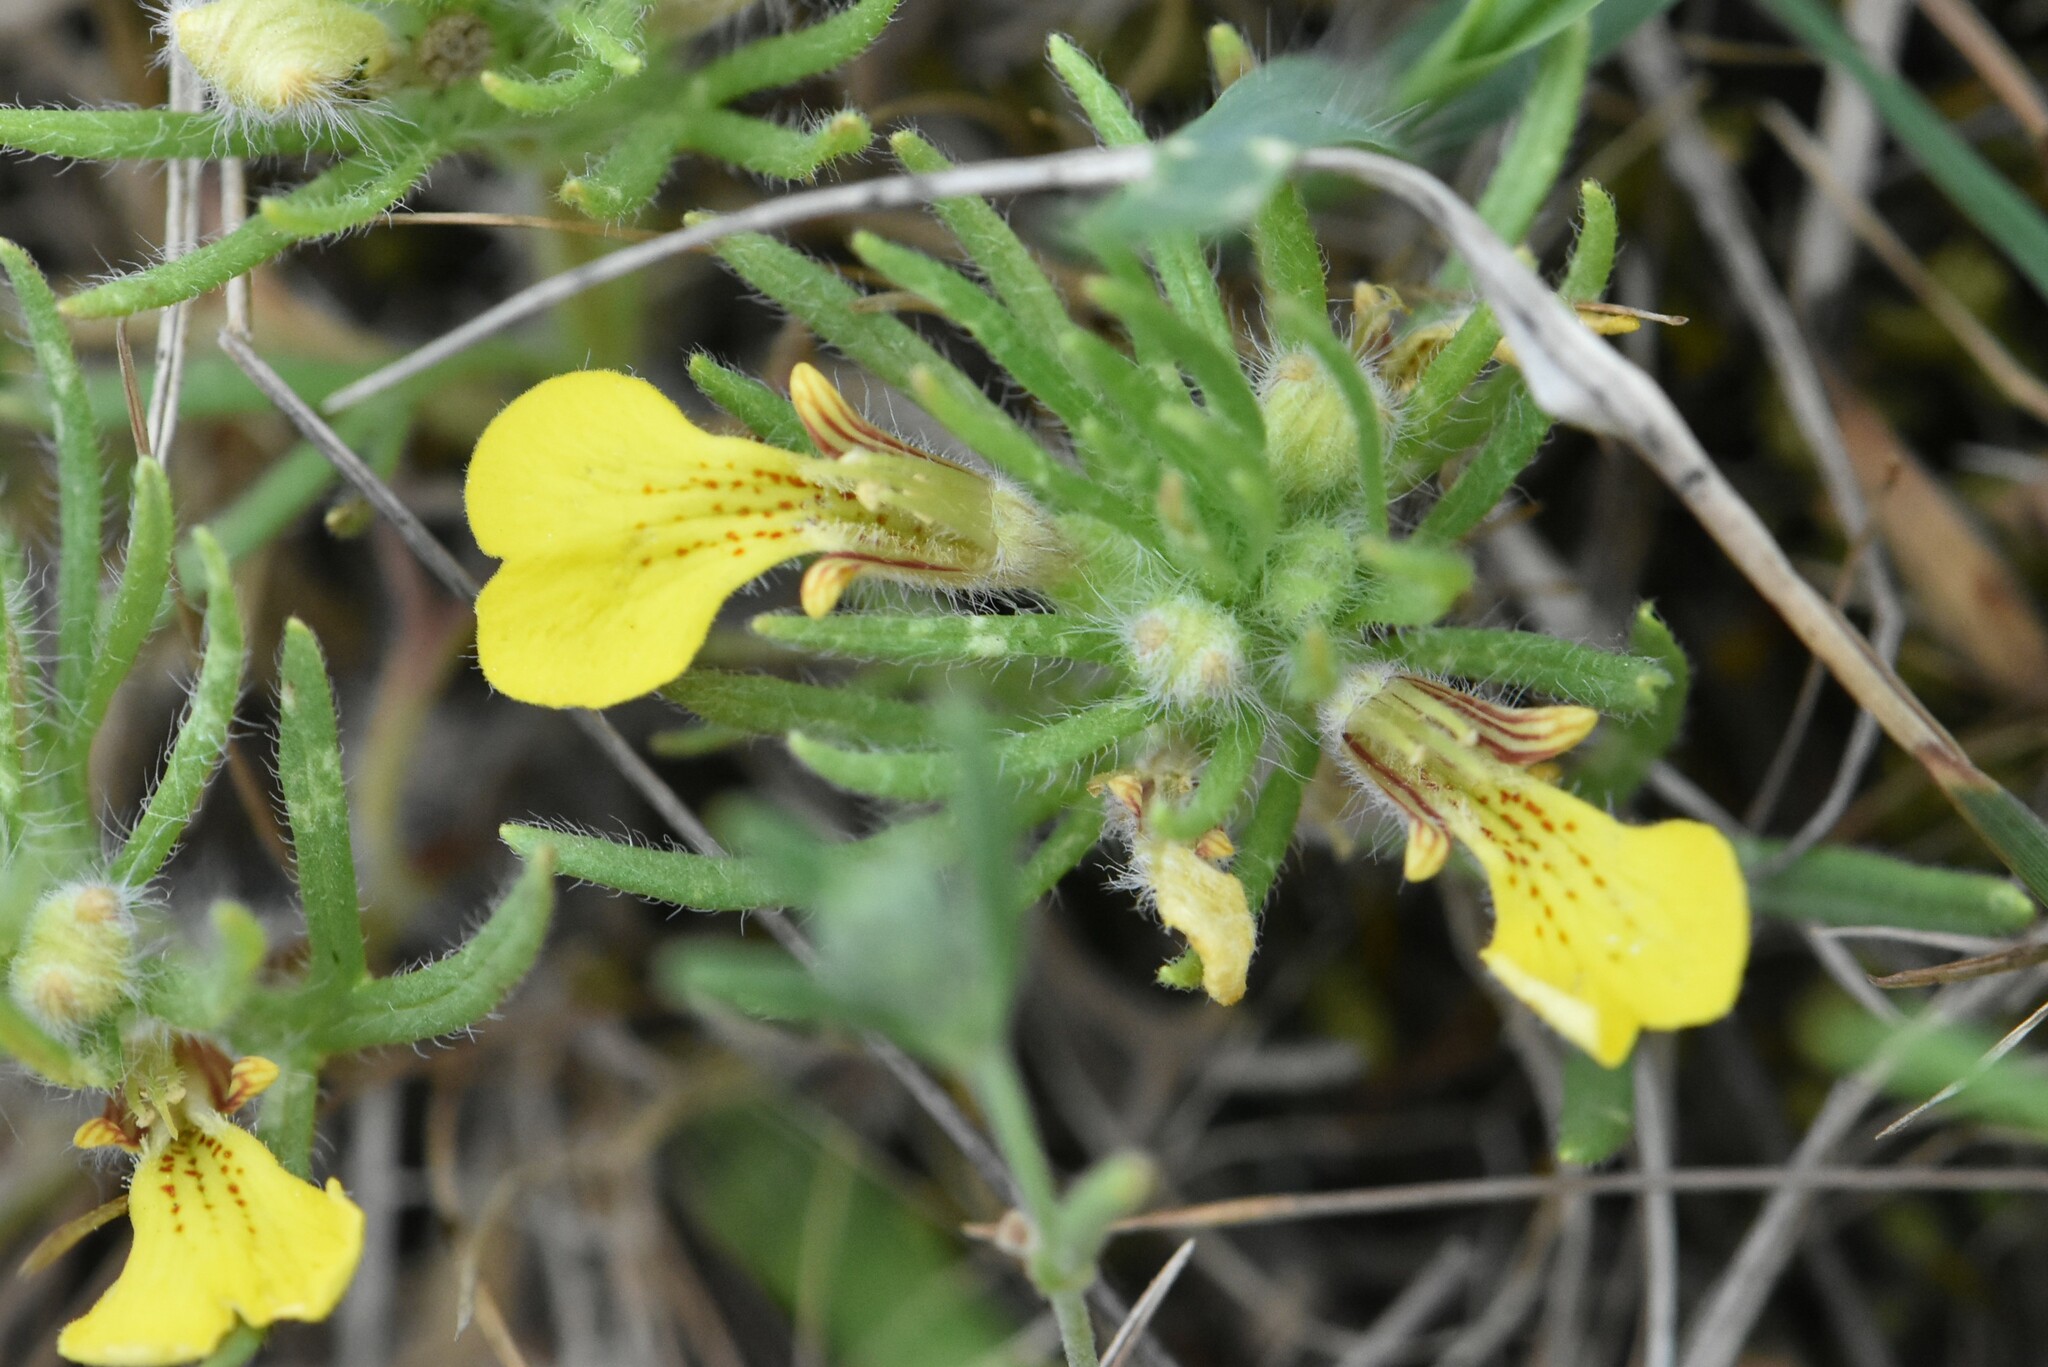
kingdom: Plantae
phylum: Tracheophyta
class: Magnoliopsida
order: Lamiales
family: Lamiaceae
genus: Ajuga
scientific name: Ajuga chamaepitys
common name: Ground-pine
